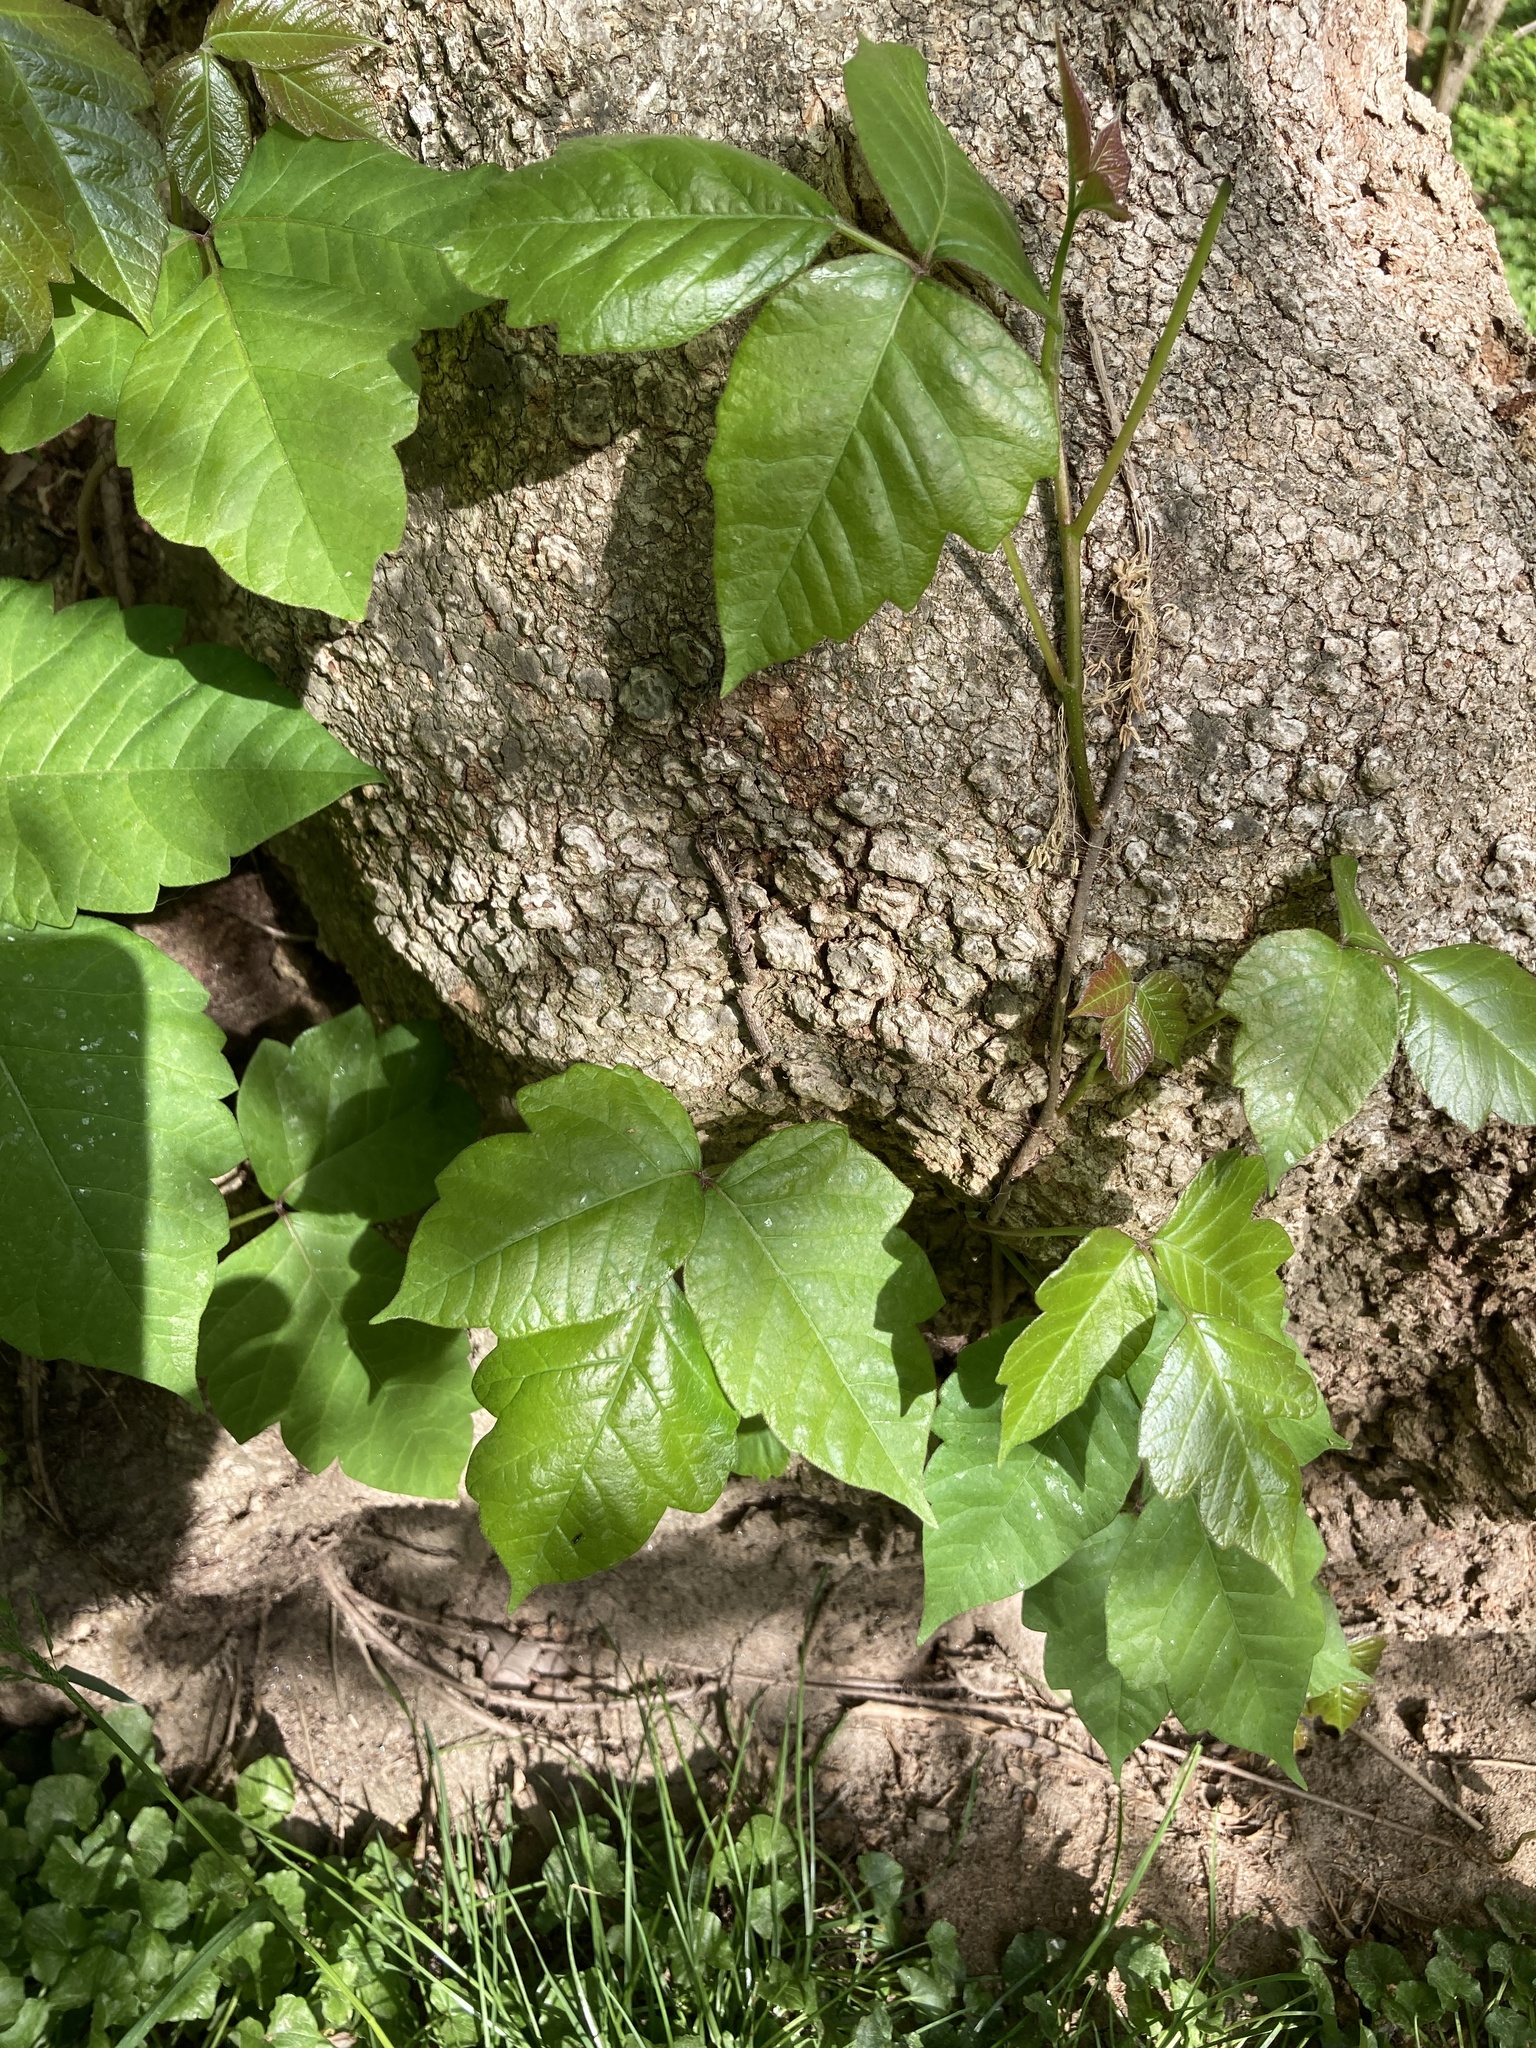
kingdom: Plantae
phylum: Tracheophyta
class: Magnoliopsida
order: Sapindales
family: Anacardiaceae
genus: Toxicodendron
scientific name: Toxicodendron radicans
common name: Poison ivy
